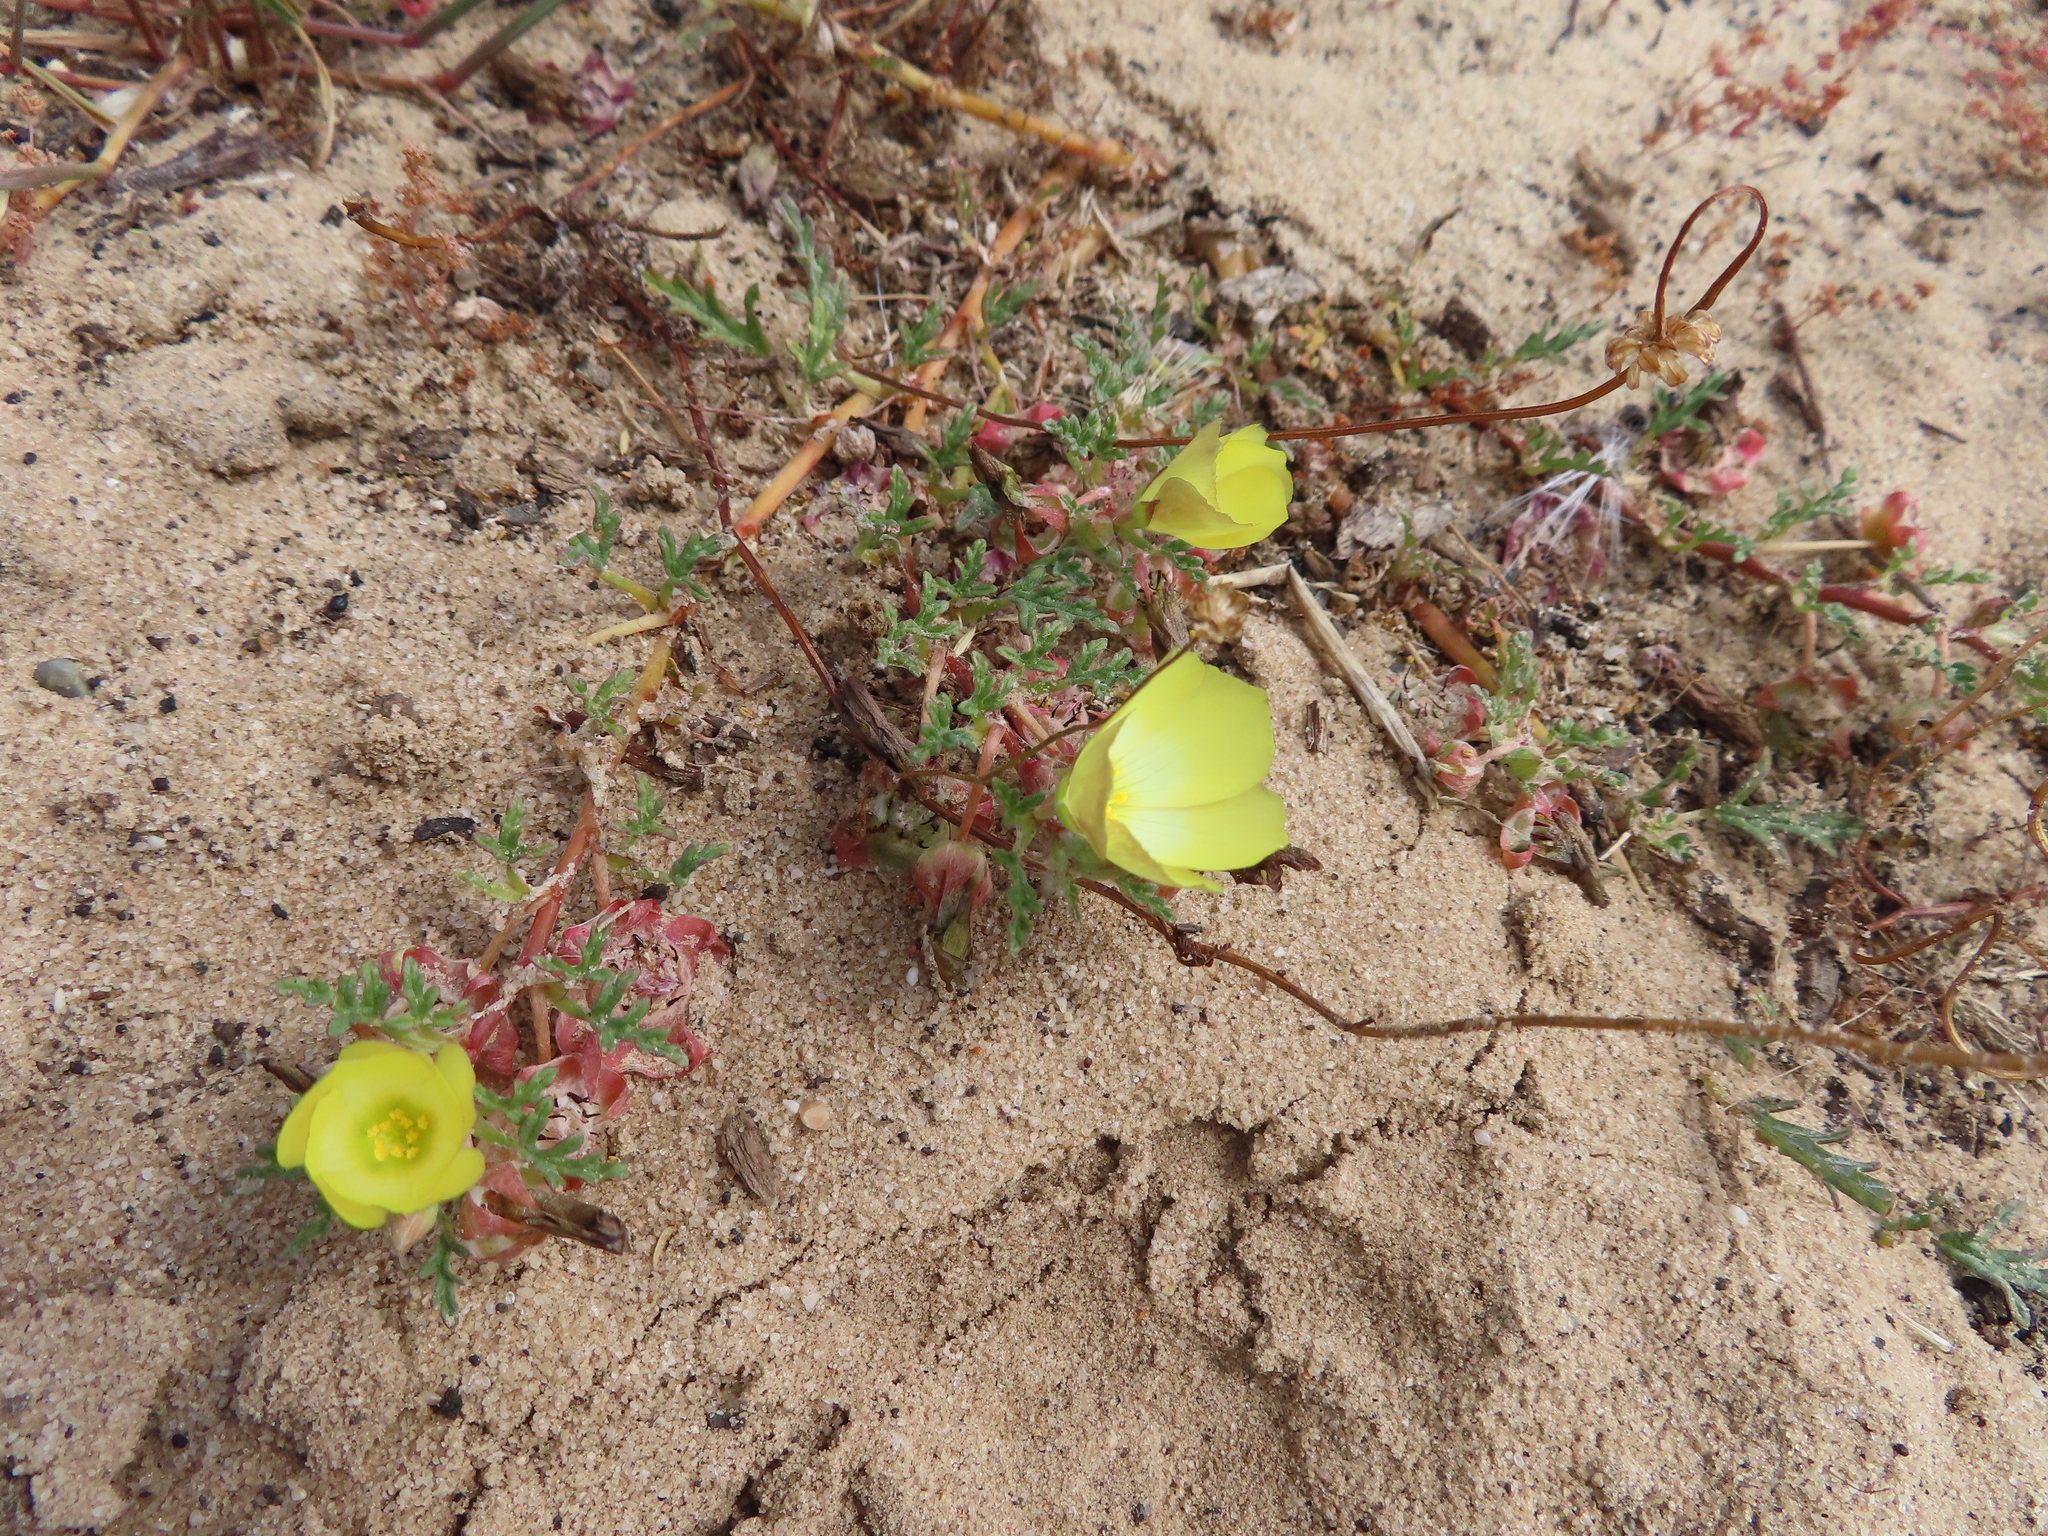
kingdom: Plantae
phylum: Tracheophyta
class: Magnoliopsida
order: Malvales
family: Neuradaceae
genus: Grielum
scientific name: Grielum humifusum
